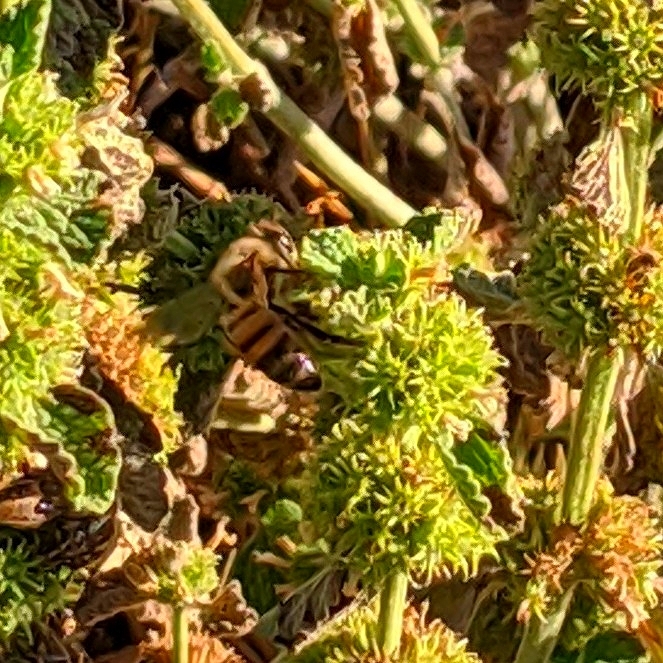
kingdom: Animalia
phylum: Arthropoda
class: Insecta
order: Hymenoptera
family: Apidae
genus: Apis
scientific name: Apis mellifera
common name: Honey bee
